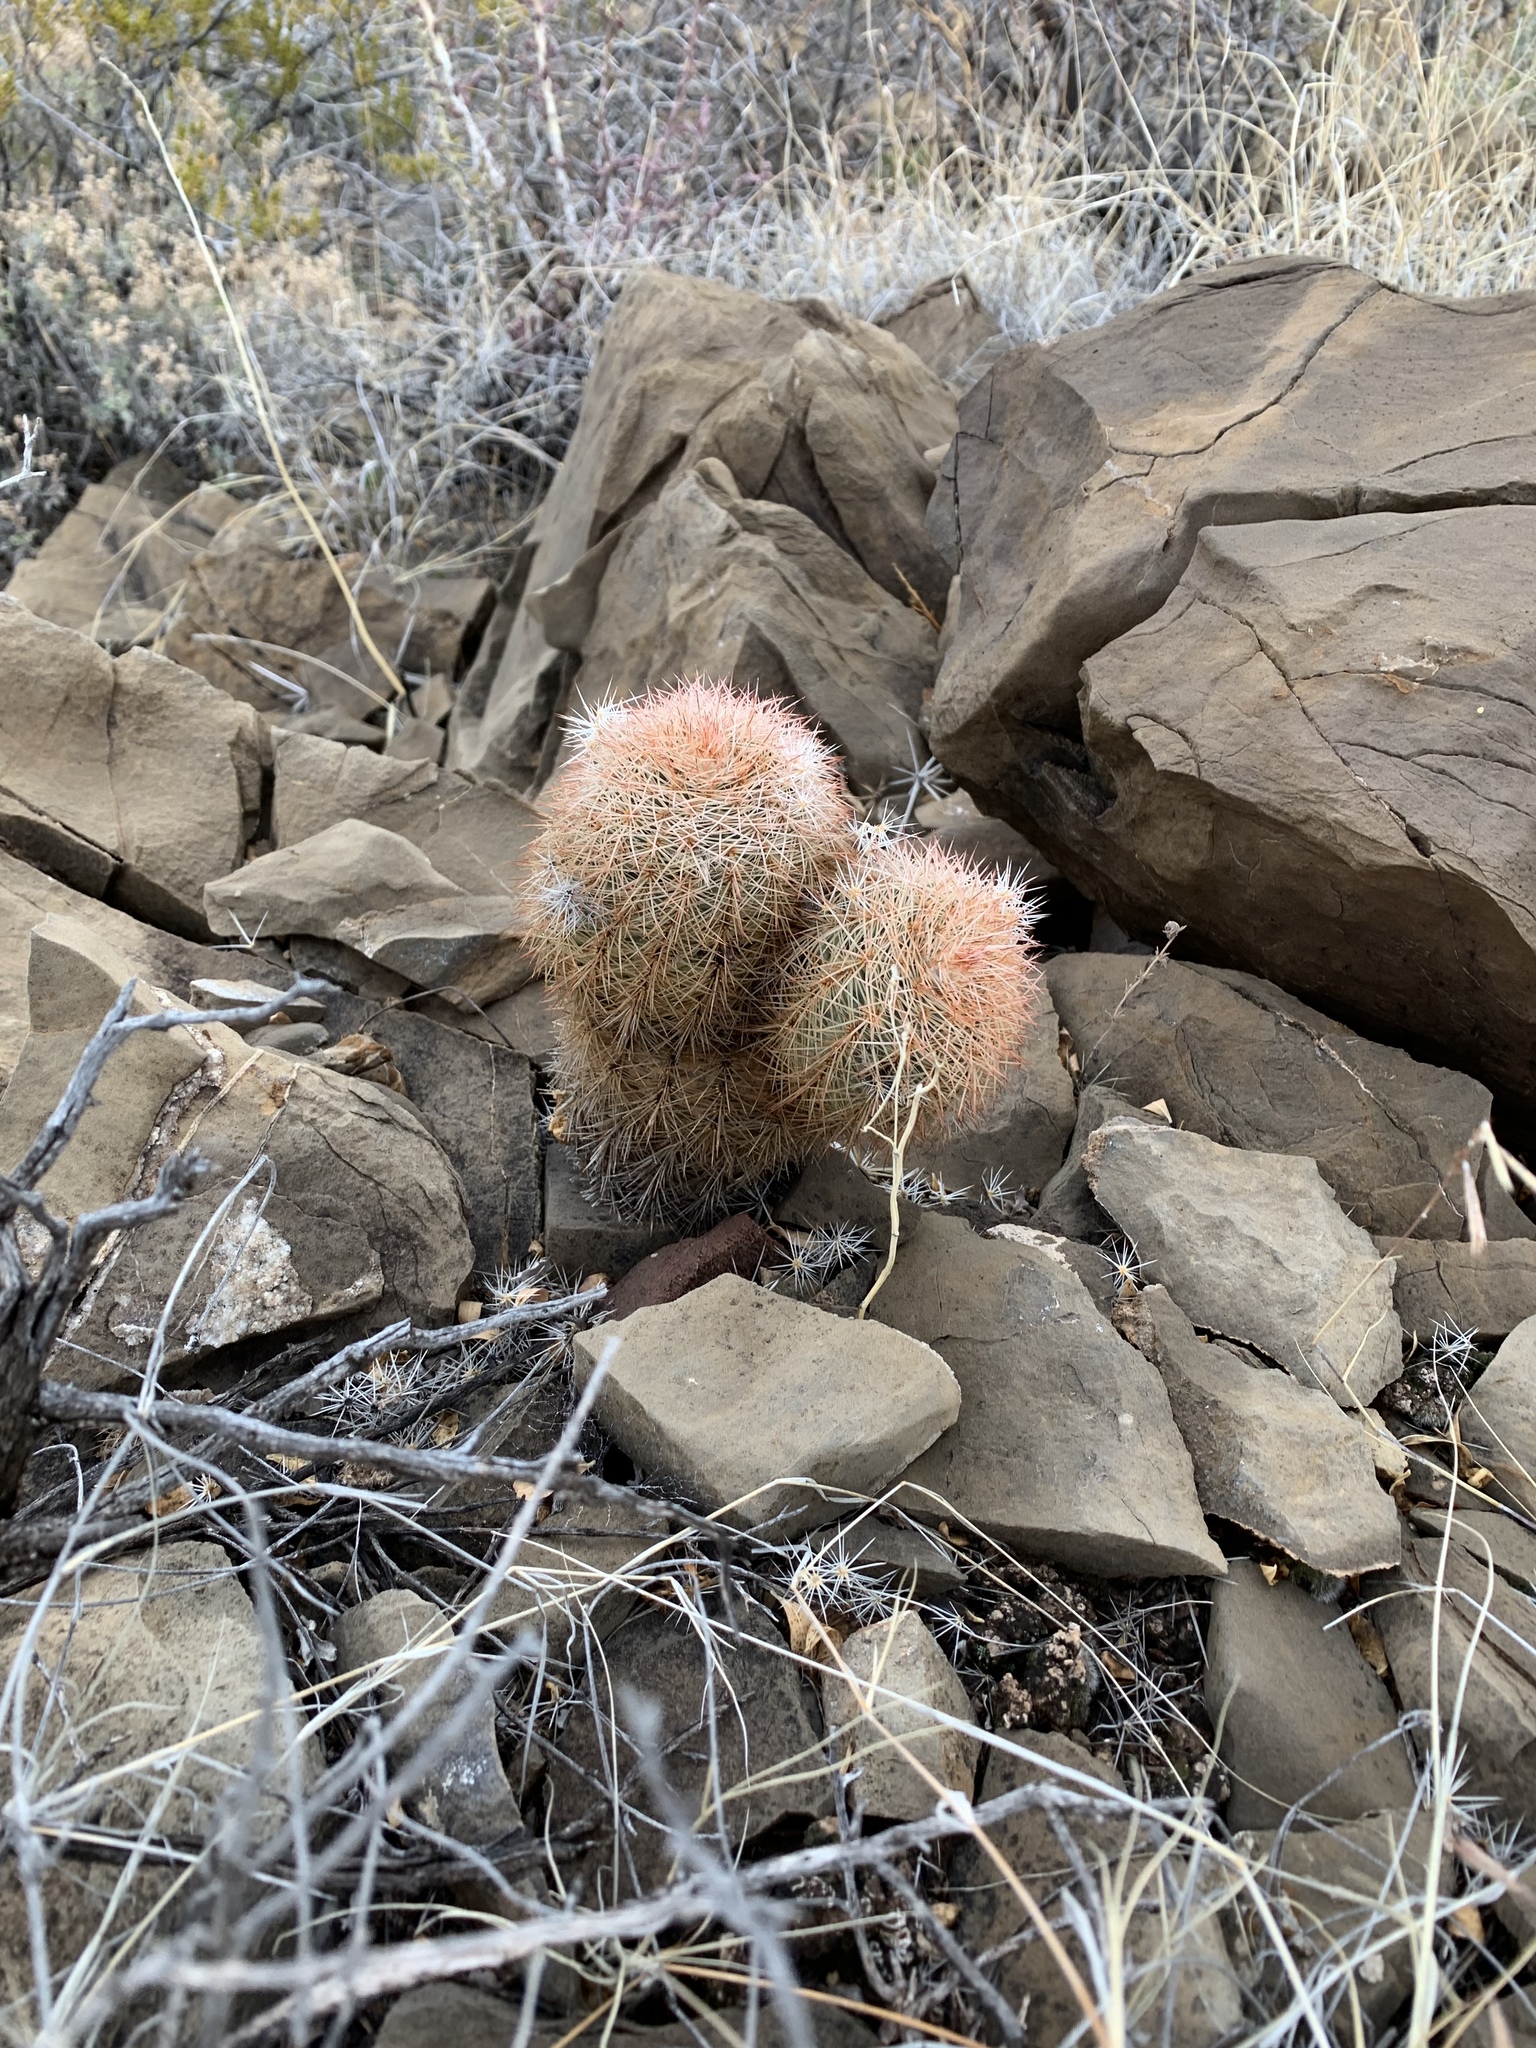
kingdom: Plantae
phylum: Tracheophyta
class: Magnoliopsida
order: Caryophyllales
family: Cactaceae
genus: Echinocereus
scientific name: Echinocereus dasyacanthus
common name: Spiny hedgehog cactus
